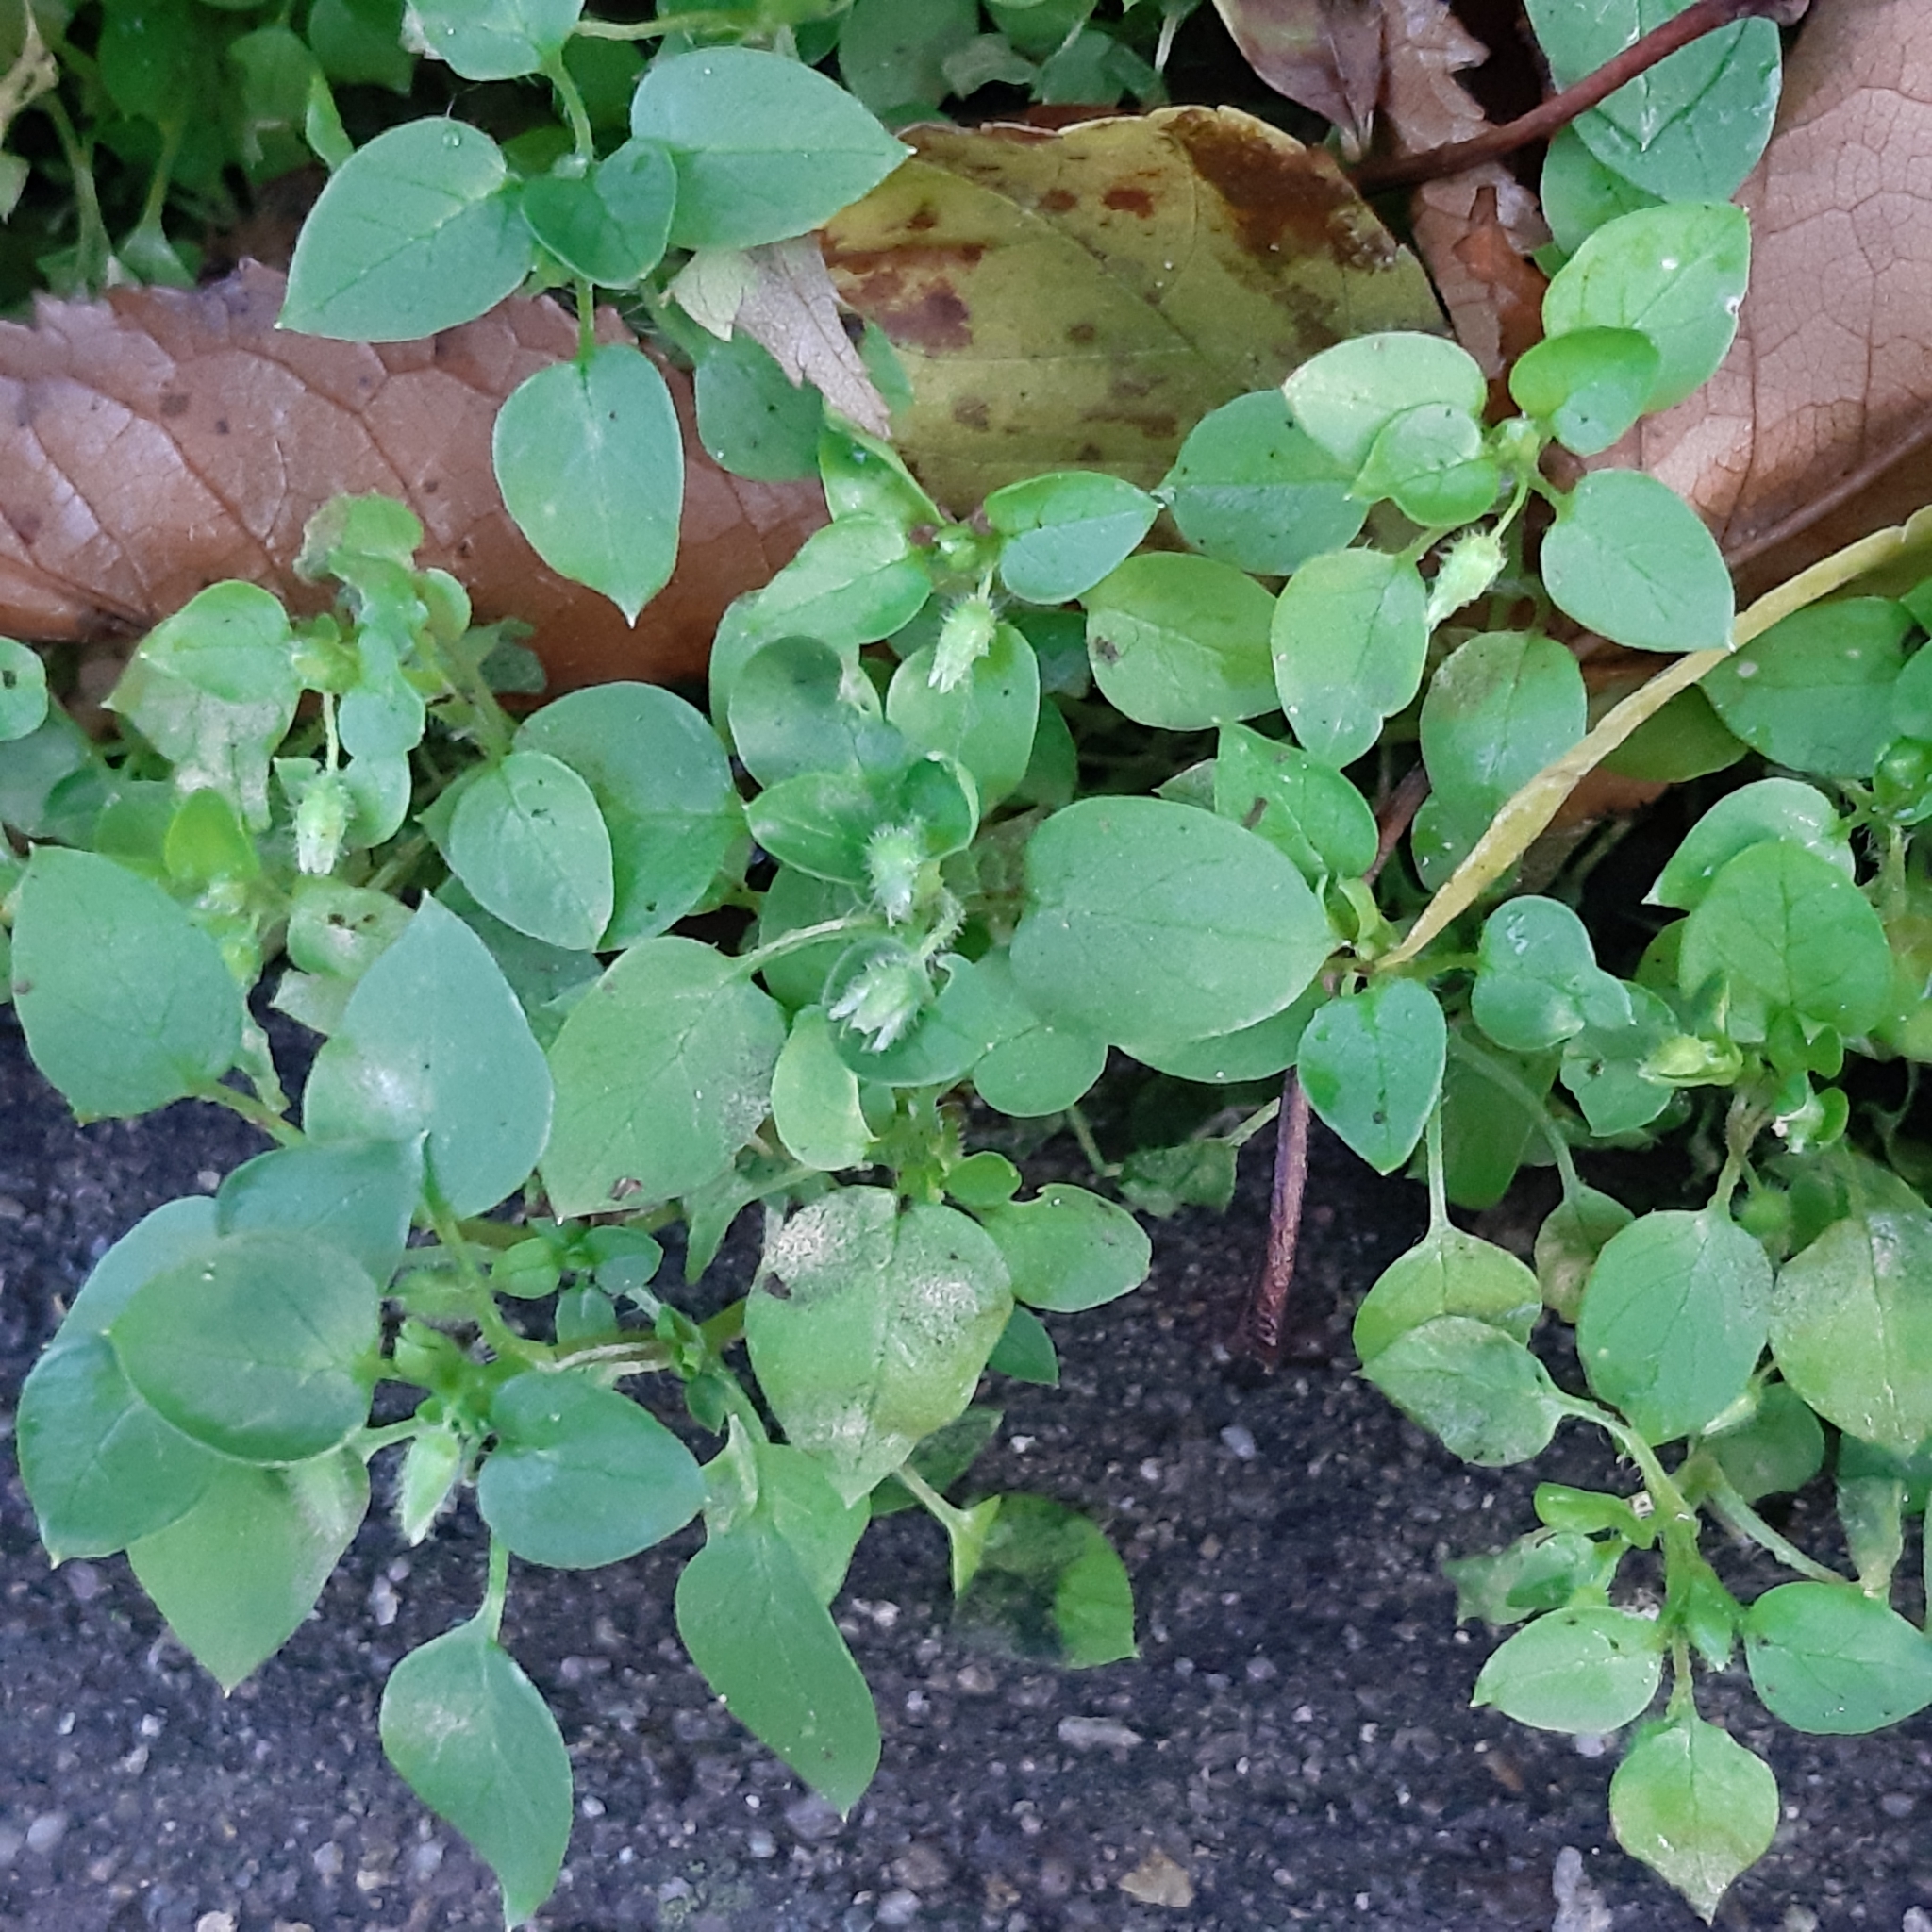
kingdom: Plantae
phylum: Tracheophyta
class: Magnoliopsida
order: Caryophyllales
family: Caryophyllaceae
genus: Stellaria
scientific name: Stellaria media
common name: Common chickweed
